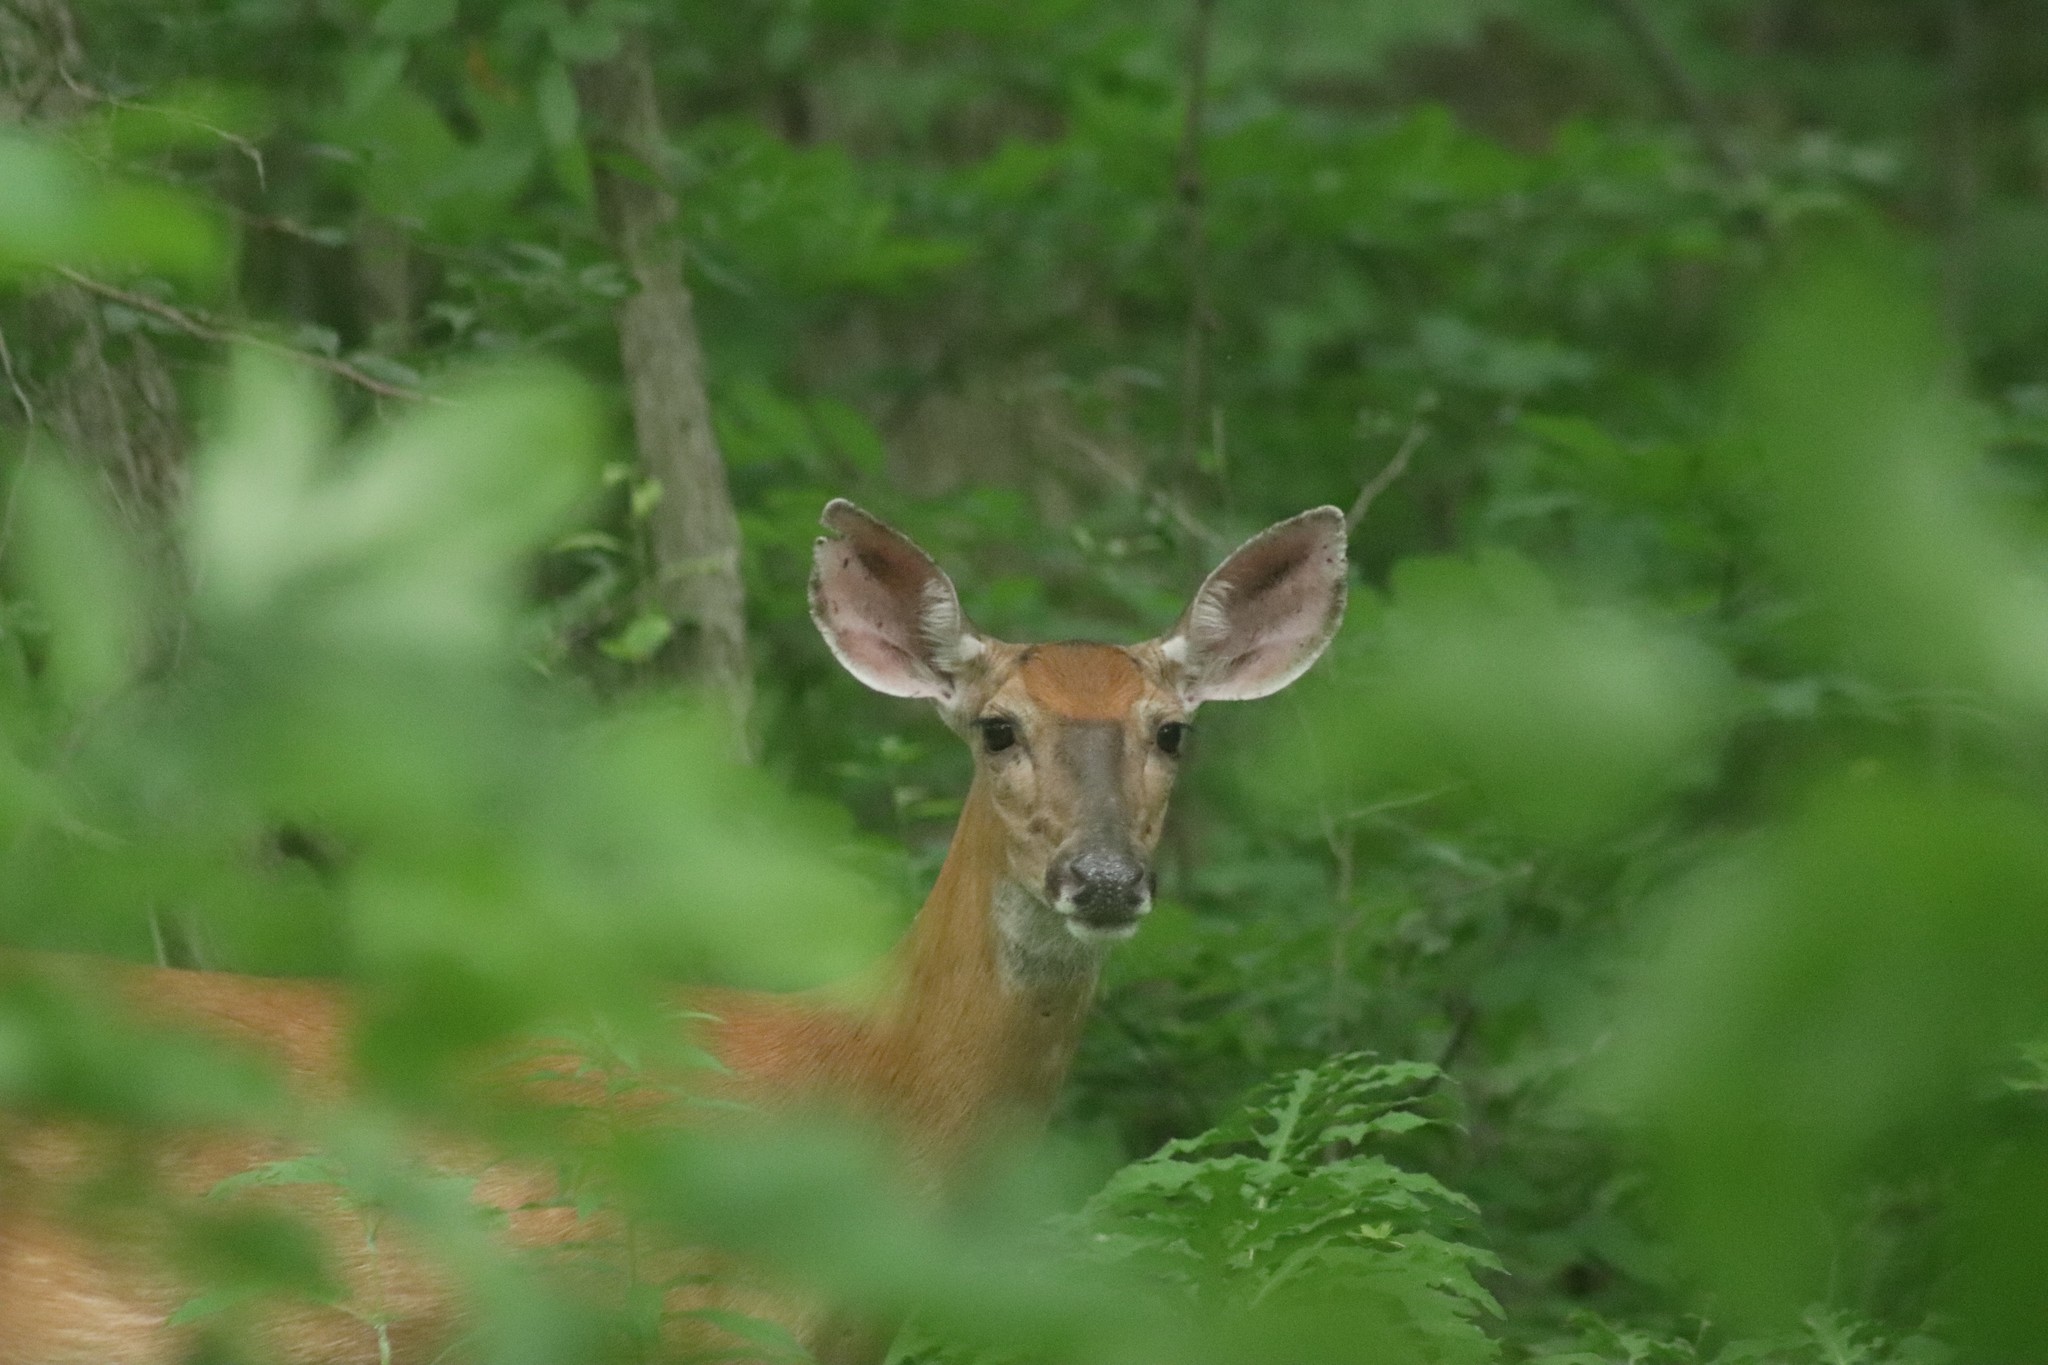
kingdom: Animalia
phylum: Chordata
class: Mammalia
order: Artiodactyla
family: Cervidae
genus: Odocoileus
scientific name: Odocoileus virginianus
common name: White-tailed deer
